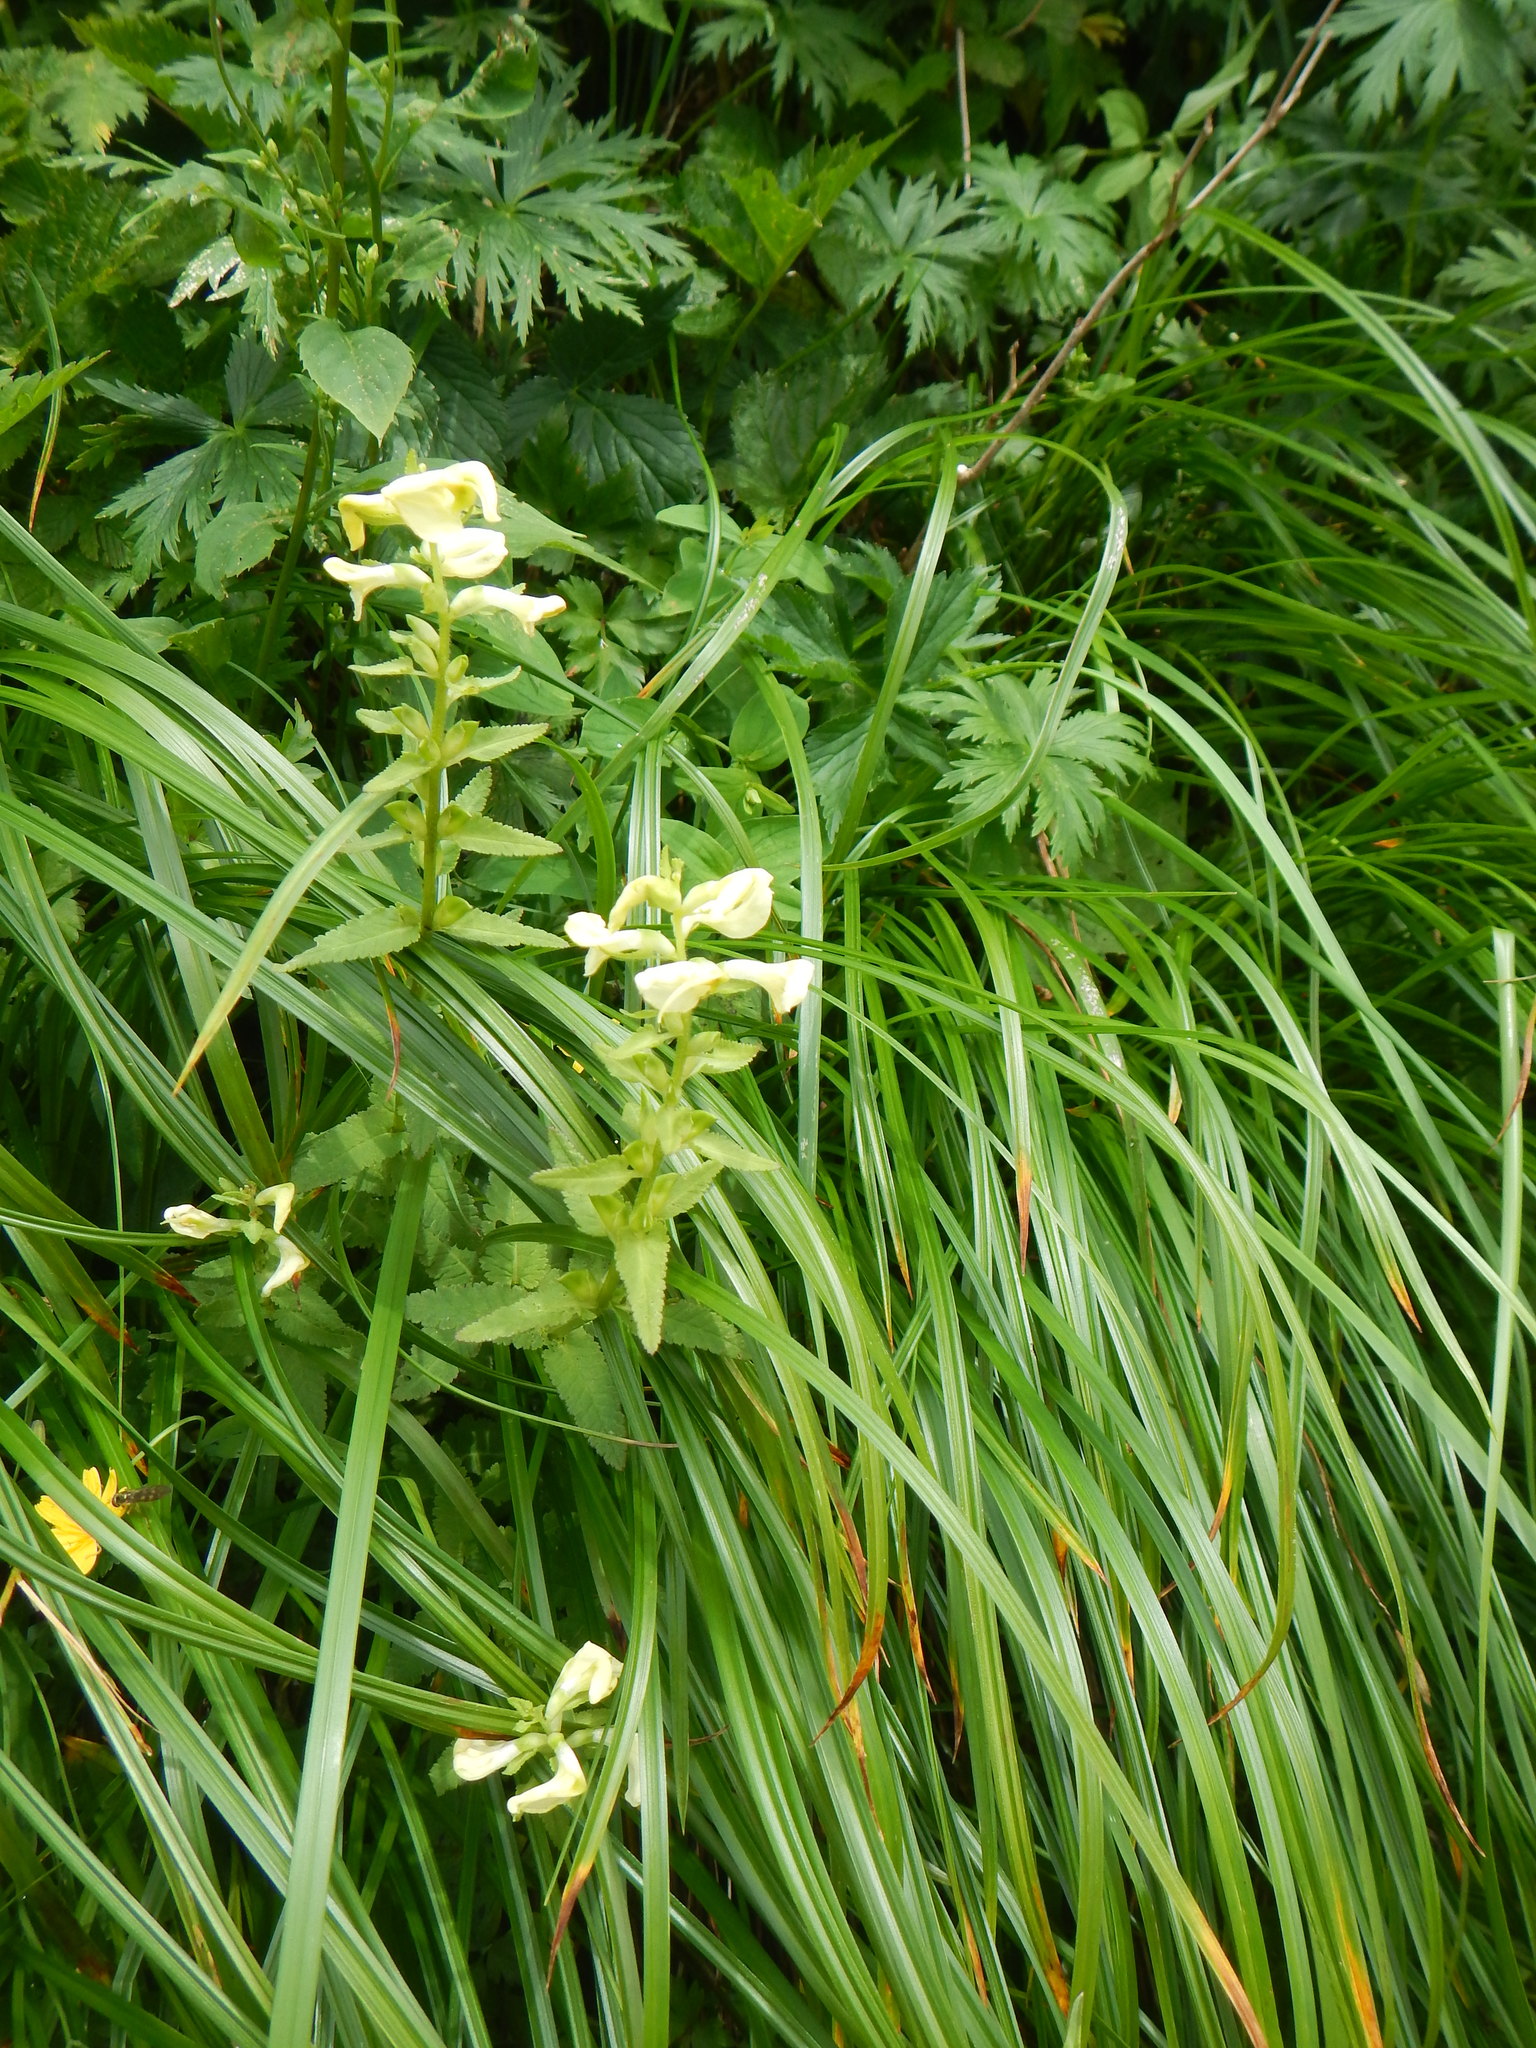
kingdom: Plantae
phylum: Tracheophyta
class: Magnoliopsida
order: Lamiales
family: Orobanchaceae
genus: Pedicularis
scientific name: Pedicularis yezoensis
